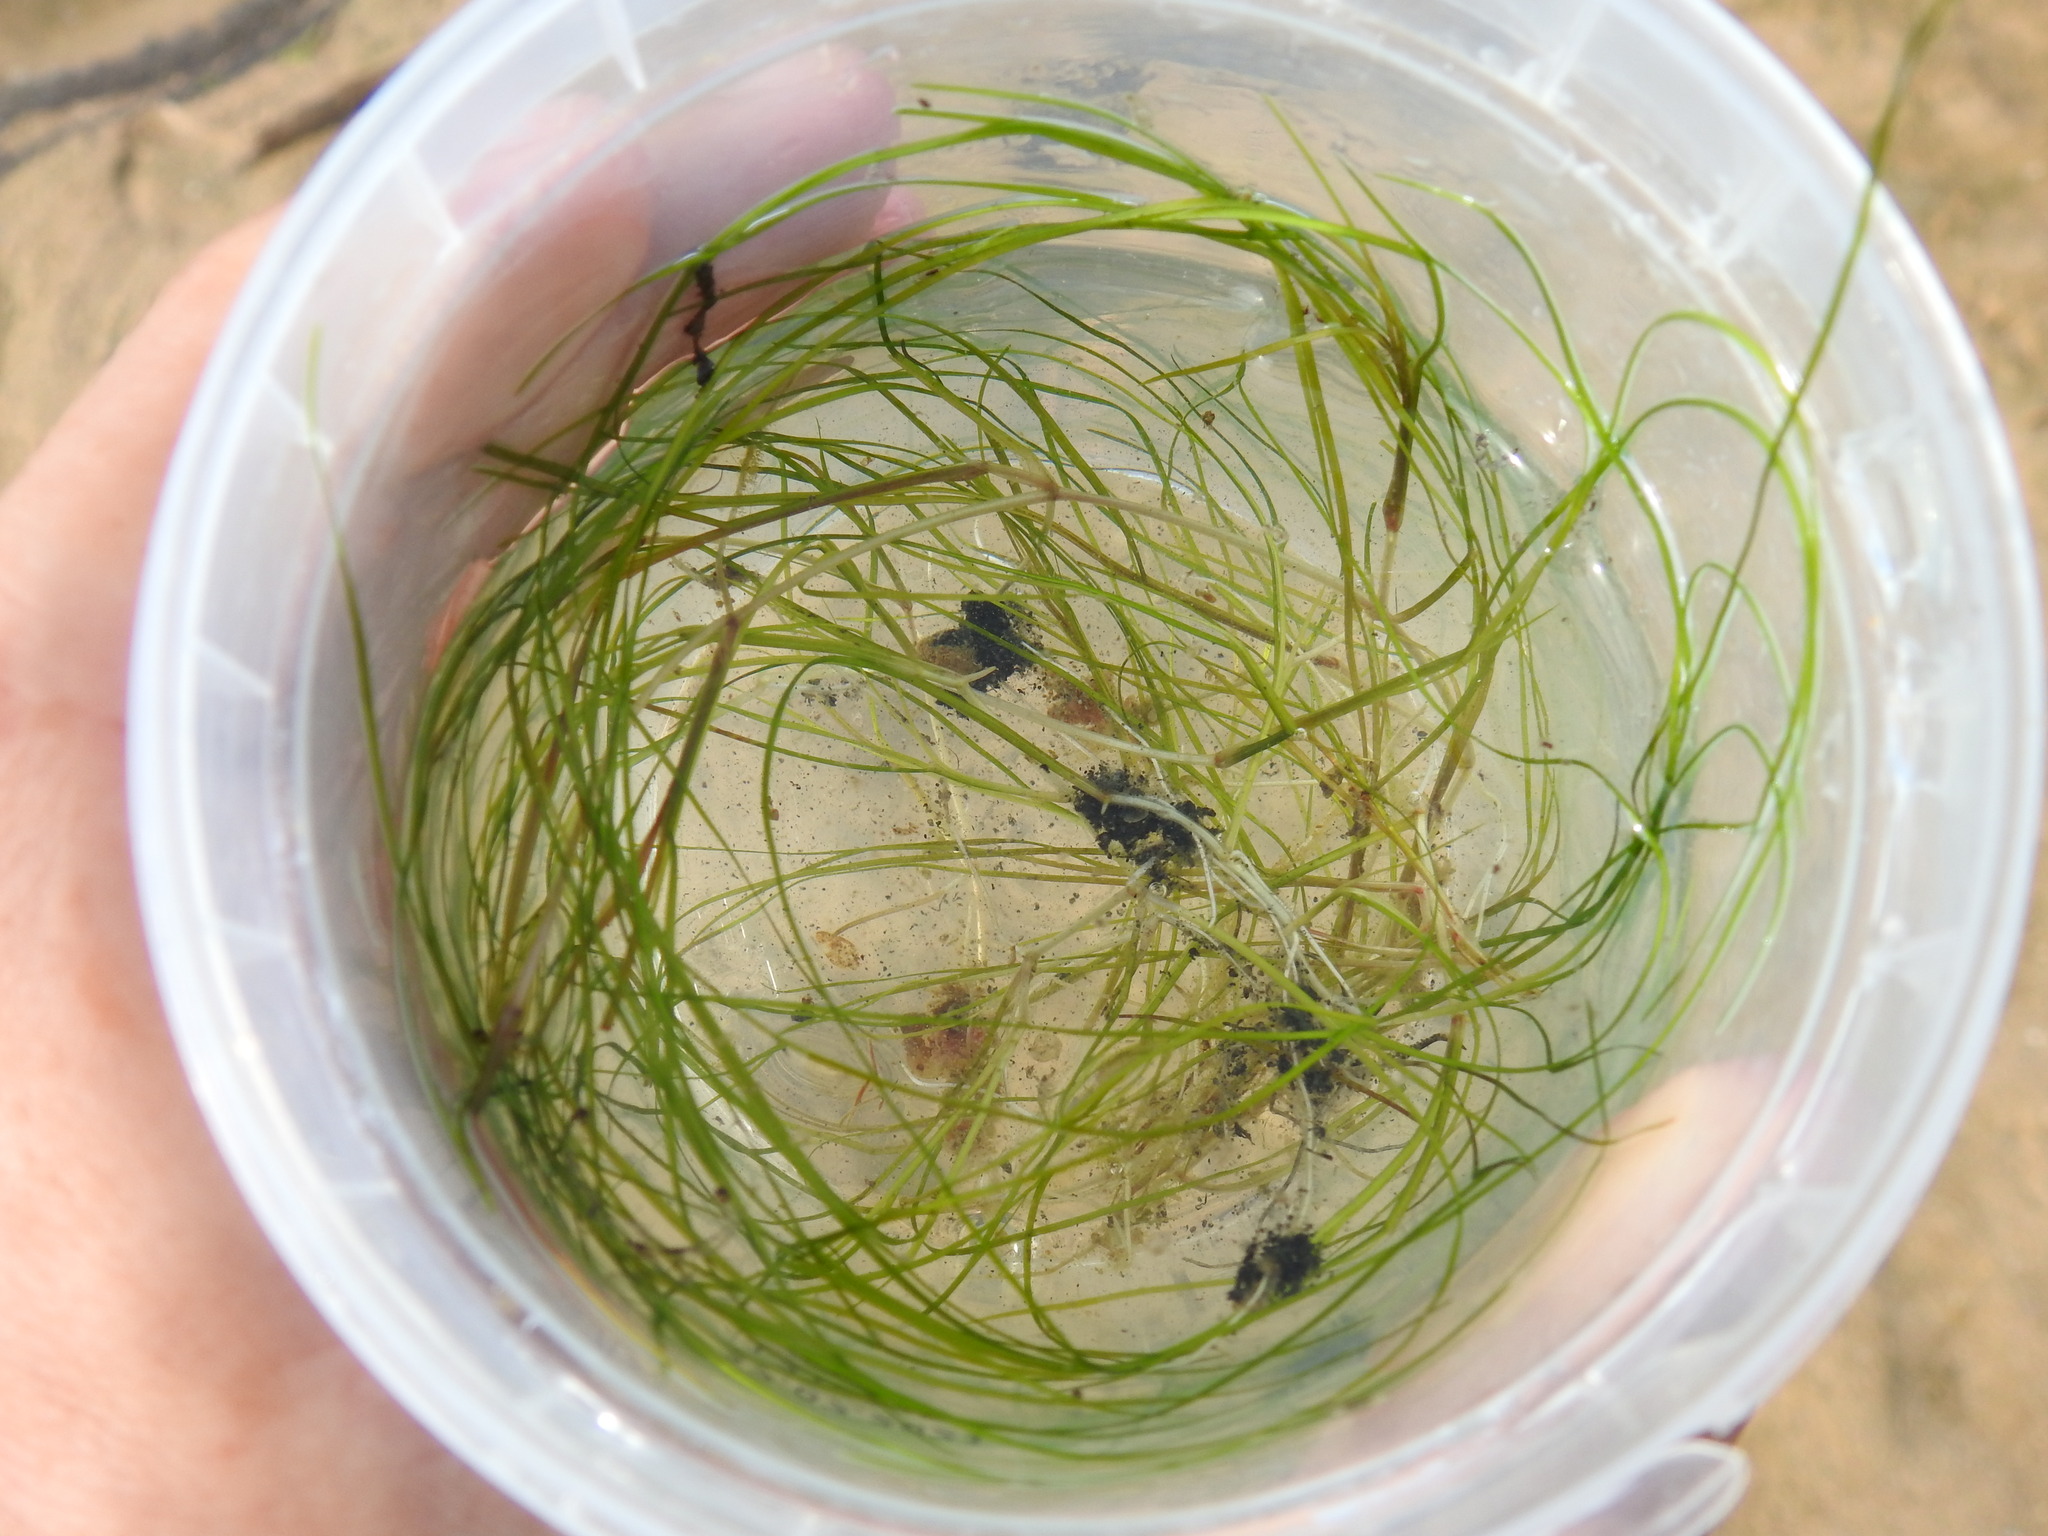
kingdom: Plantae
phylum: Tracheophyta
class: Liliopsida
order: Alismatales
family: Ruppiaceae
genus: Ruppia
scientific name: Ruppia maritima
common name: Beaked tasselweed
